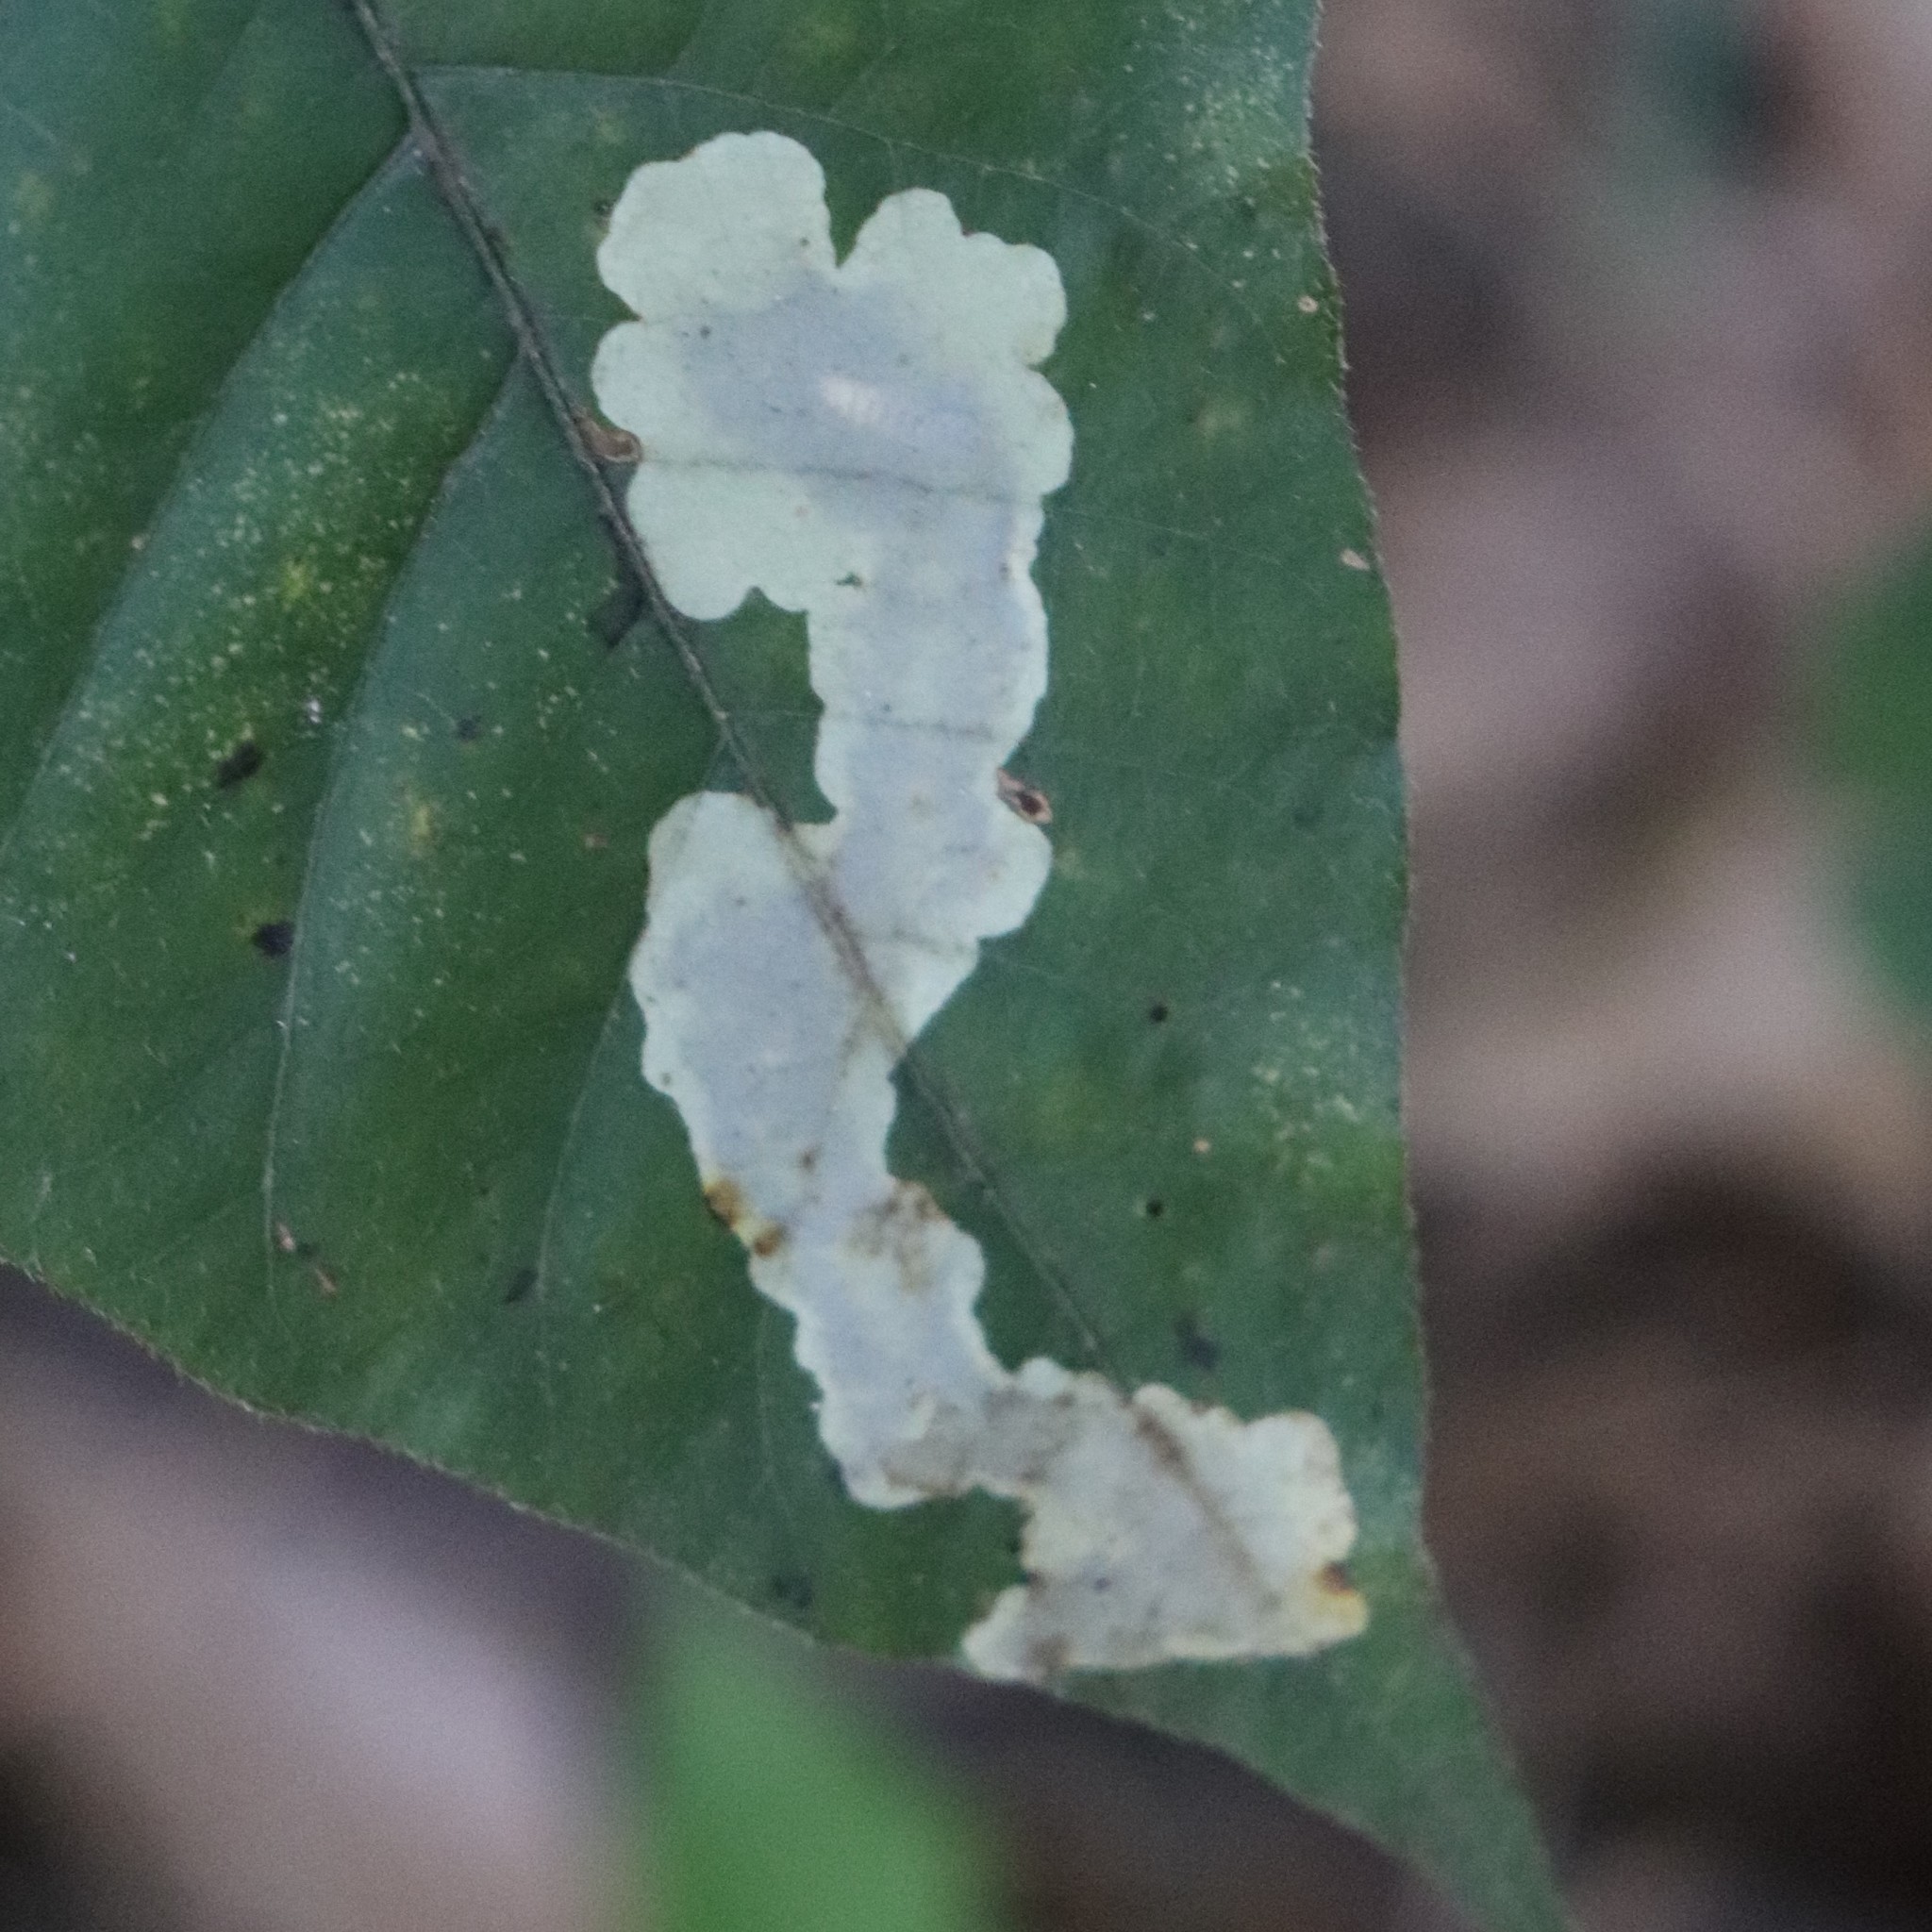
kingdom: Animalia
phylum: Arthropoda
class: Insecta
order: Lepidoptera
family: Gracillariidae
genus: Cameraria
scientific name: Cameraria guttifinitella
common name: Poison ivy leaf-miner moth
